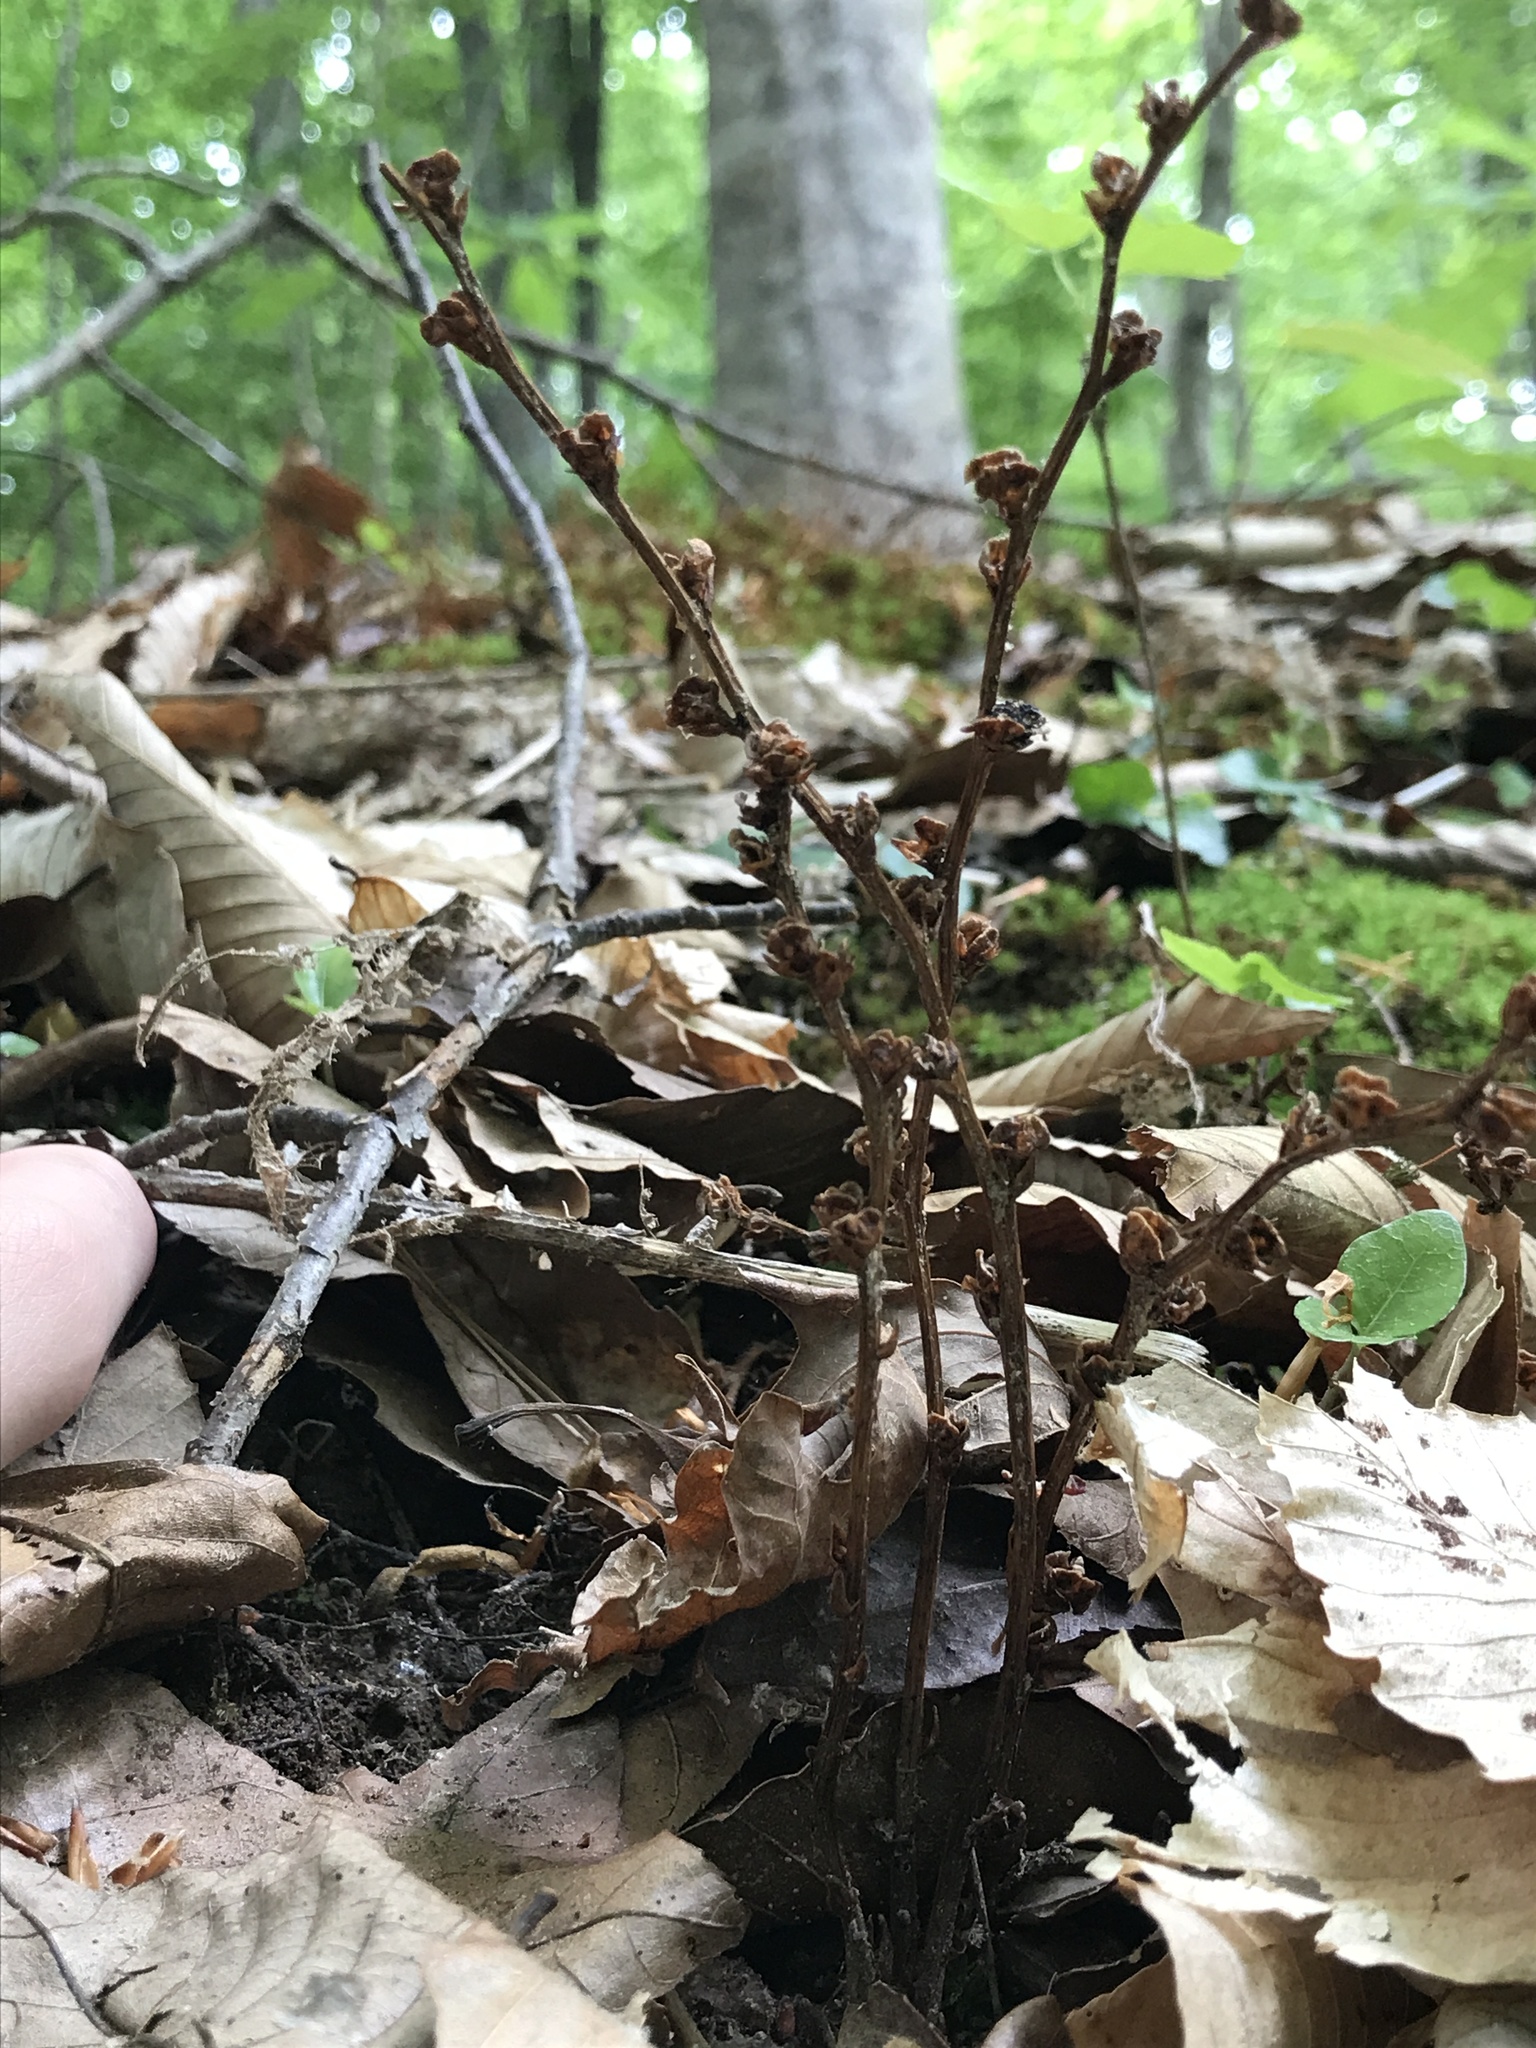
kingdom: Plantae
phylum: Tracheophyta
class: Magnoliopsida
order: Lamiales
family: Orobanchaceae
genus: Epifagus
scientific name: Epifagus virginiana
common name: Beechdrops
